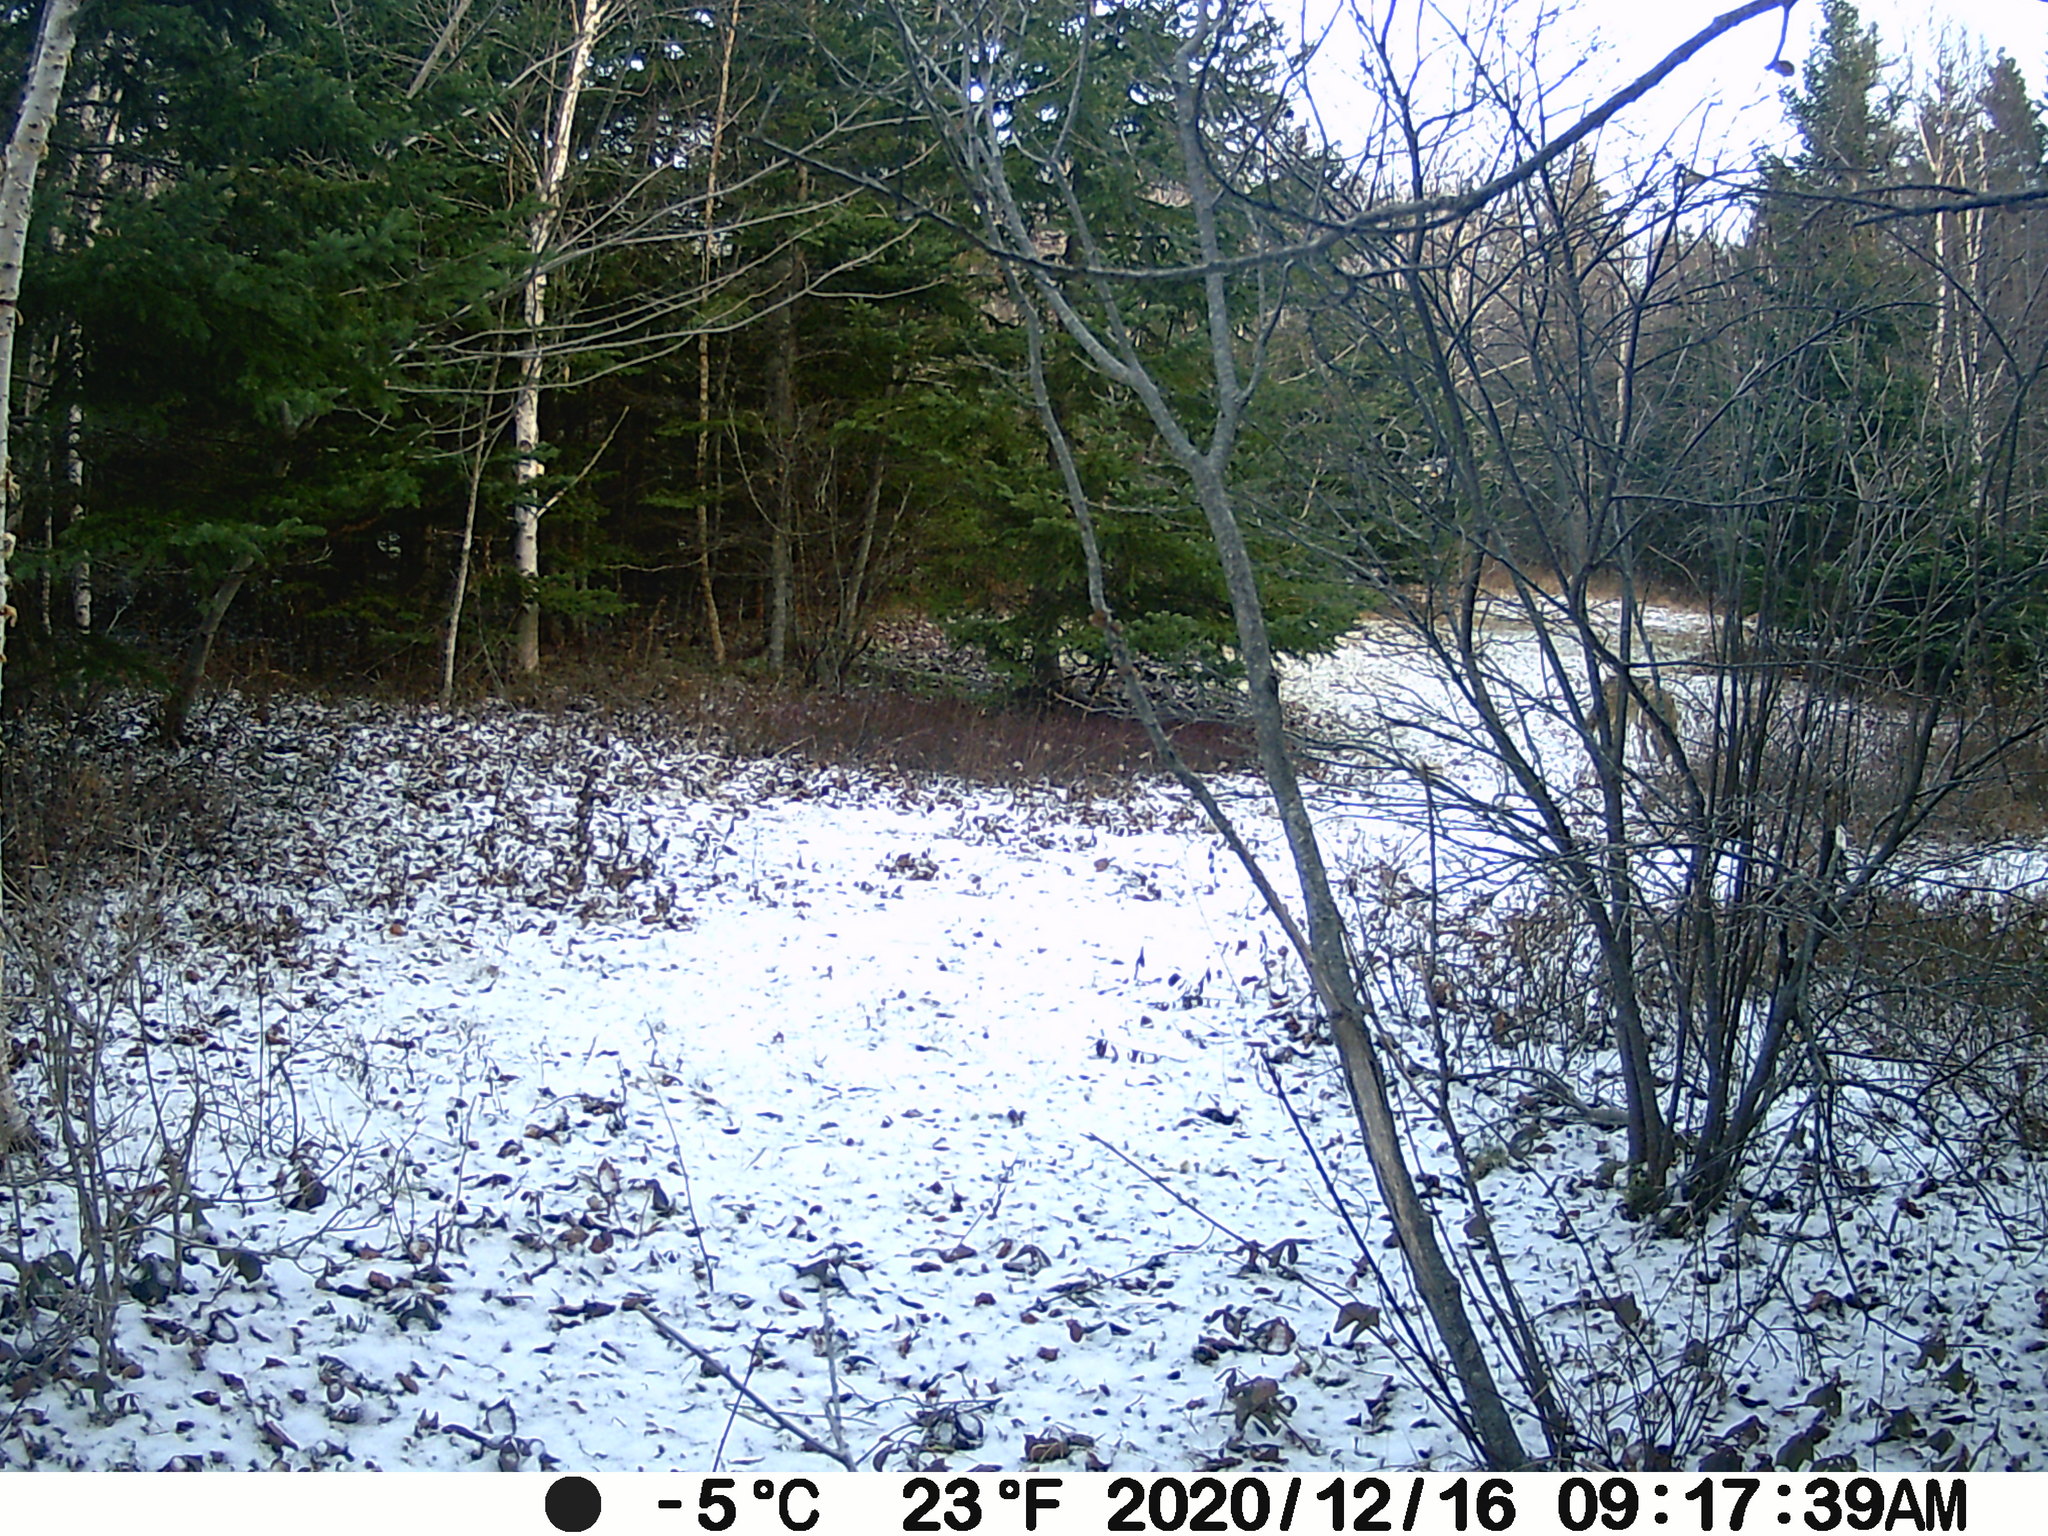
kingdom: Animalia
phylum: Chordata
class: Mammalia
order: Carnivora
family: Canidae
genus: Canis
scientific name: Canis latrans
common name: Coyote
